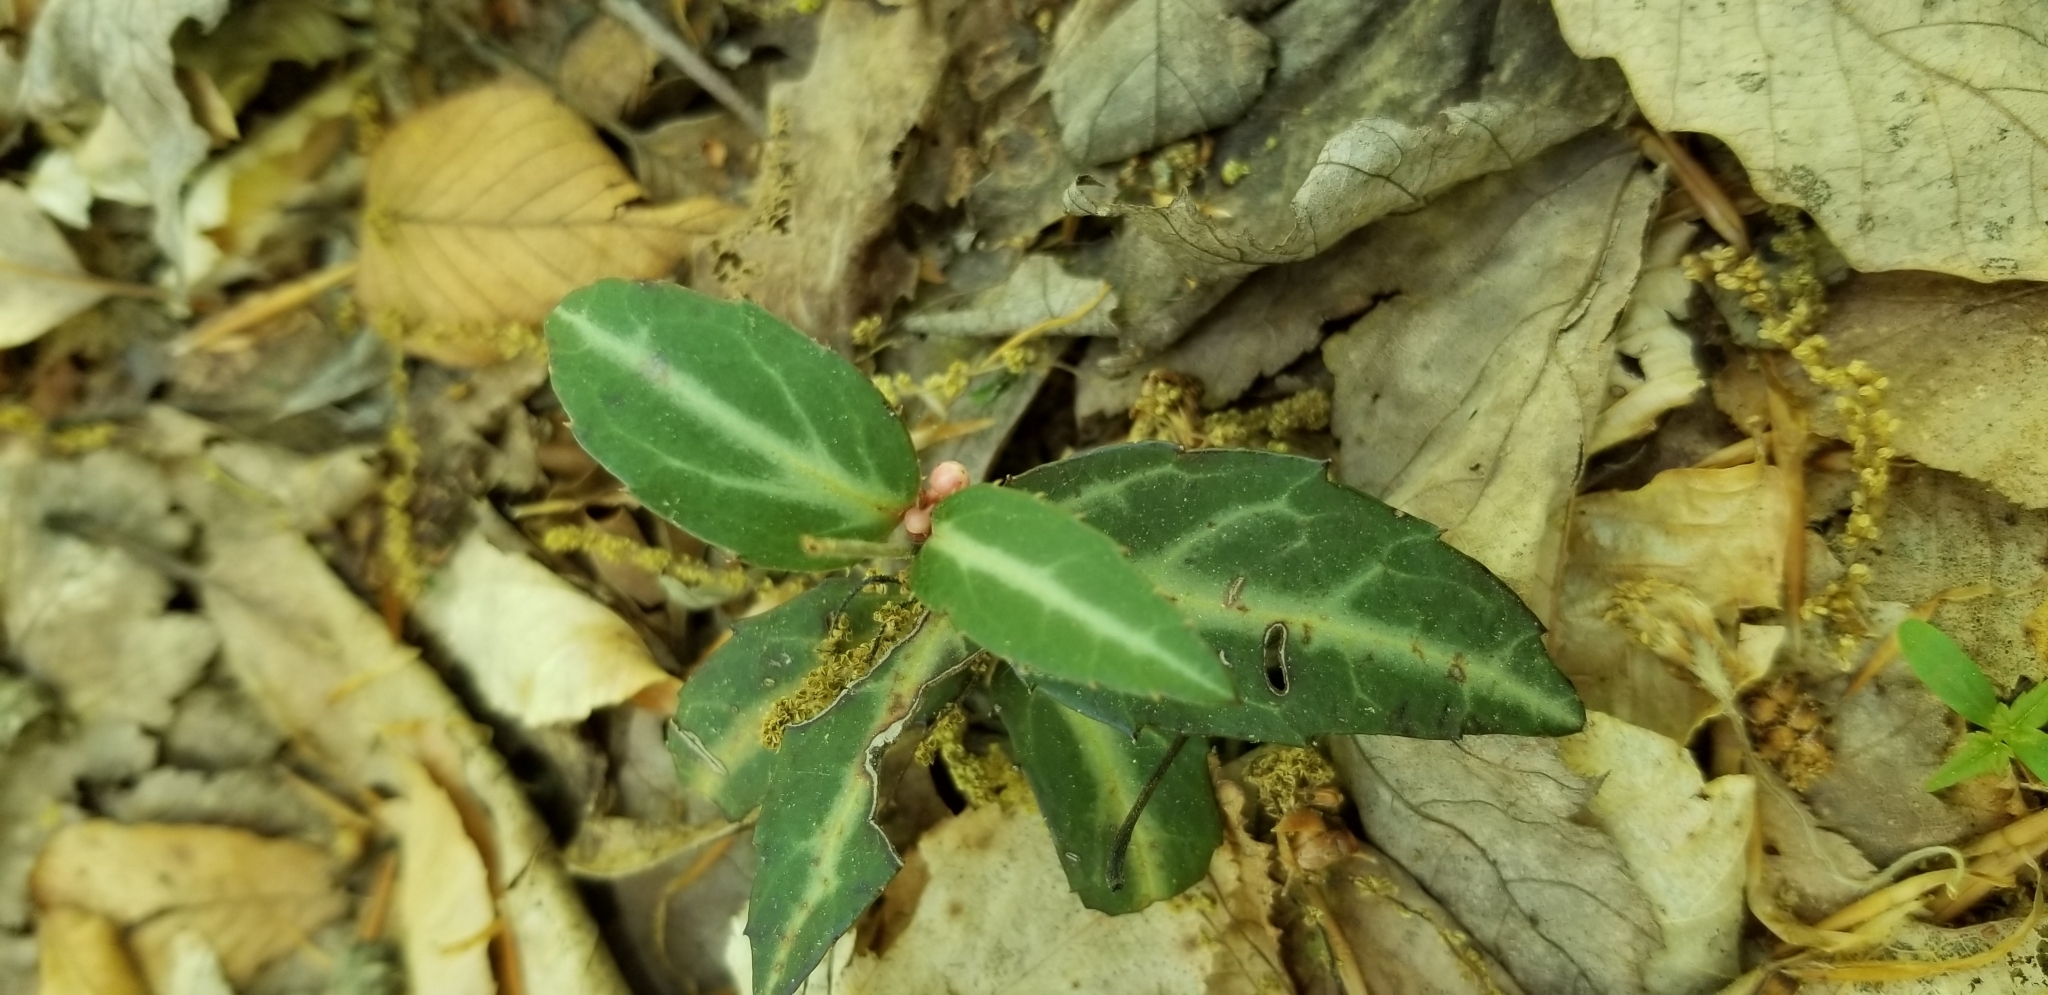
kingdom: Plantae
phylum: Tracheophyta
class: Magnoliopsida
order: Ericales
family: Ericaceae
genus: Chimaphila
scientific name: Chimaphila maculata
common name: Spotted pipsissewa
